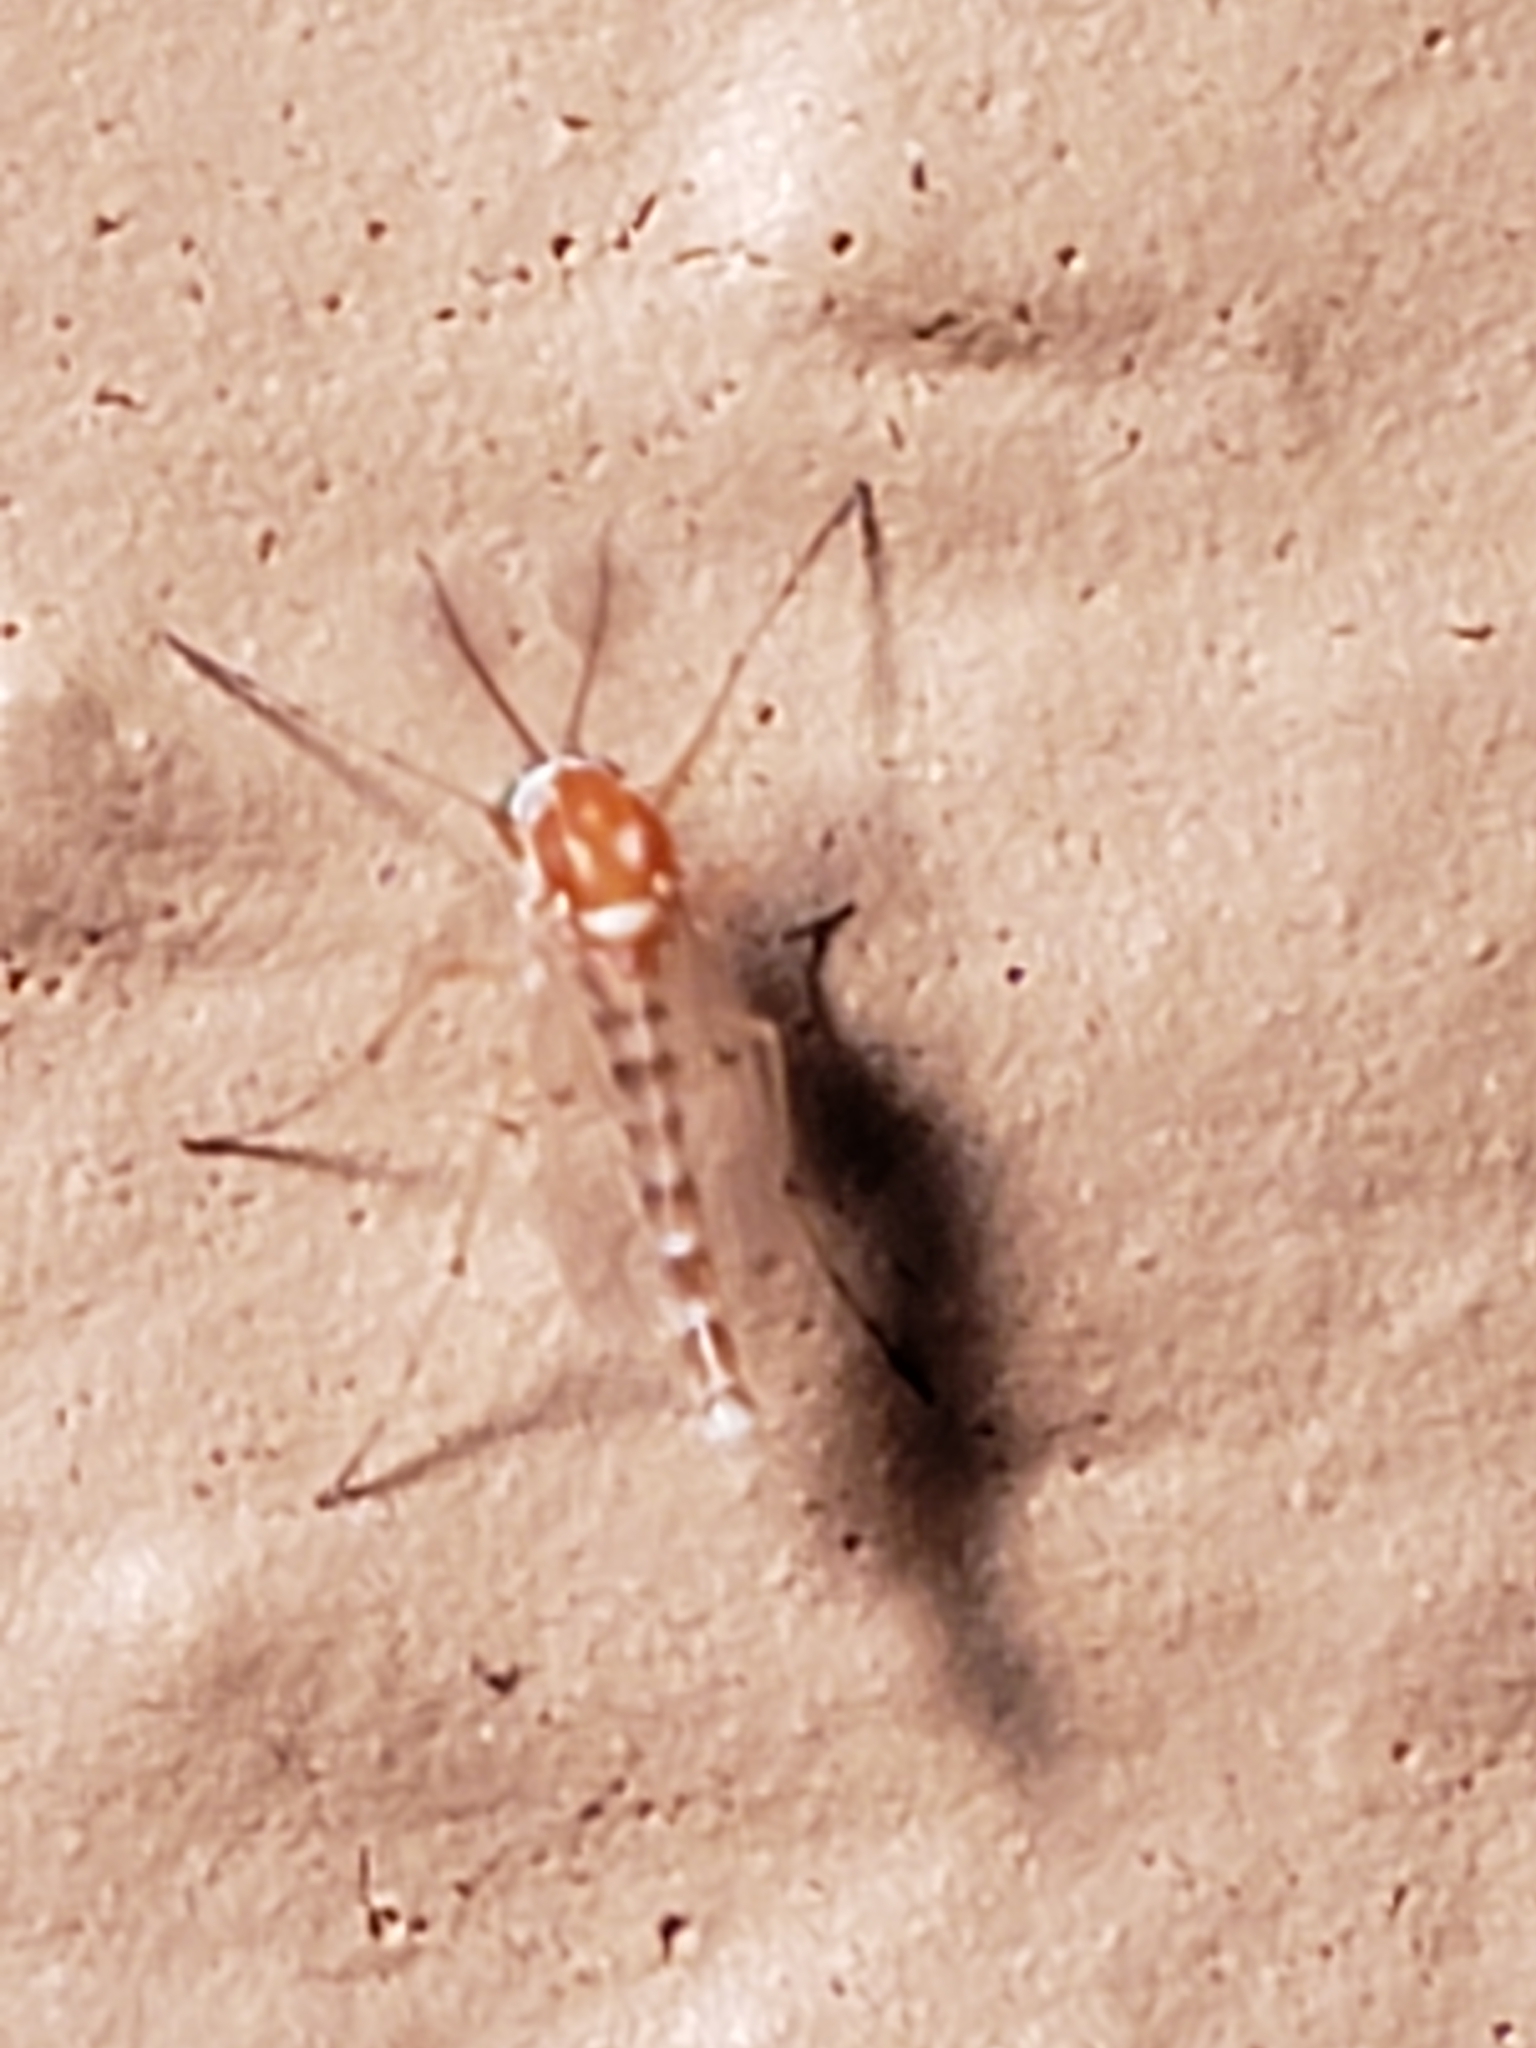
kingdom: Animalia
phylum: Arthropoda
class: Insecta
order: Diptera
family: Chironomidae
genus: Procladius
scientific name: Procladius bellus
